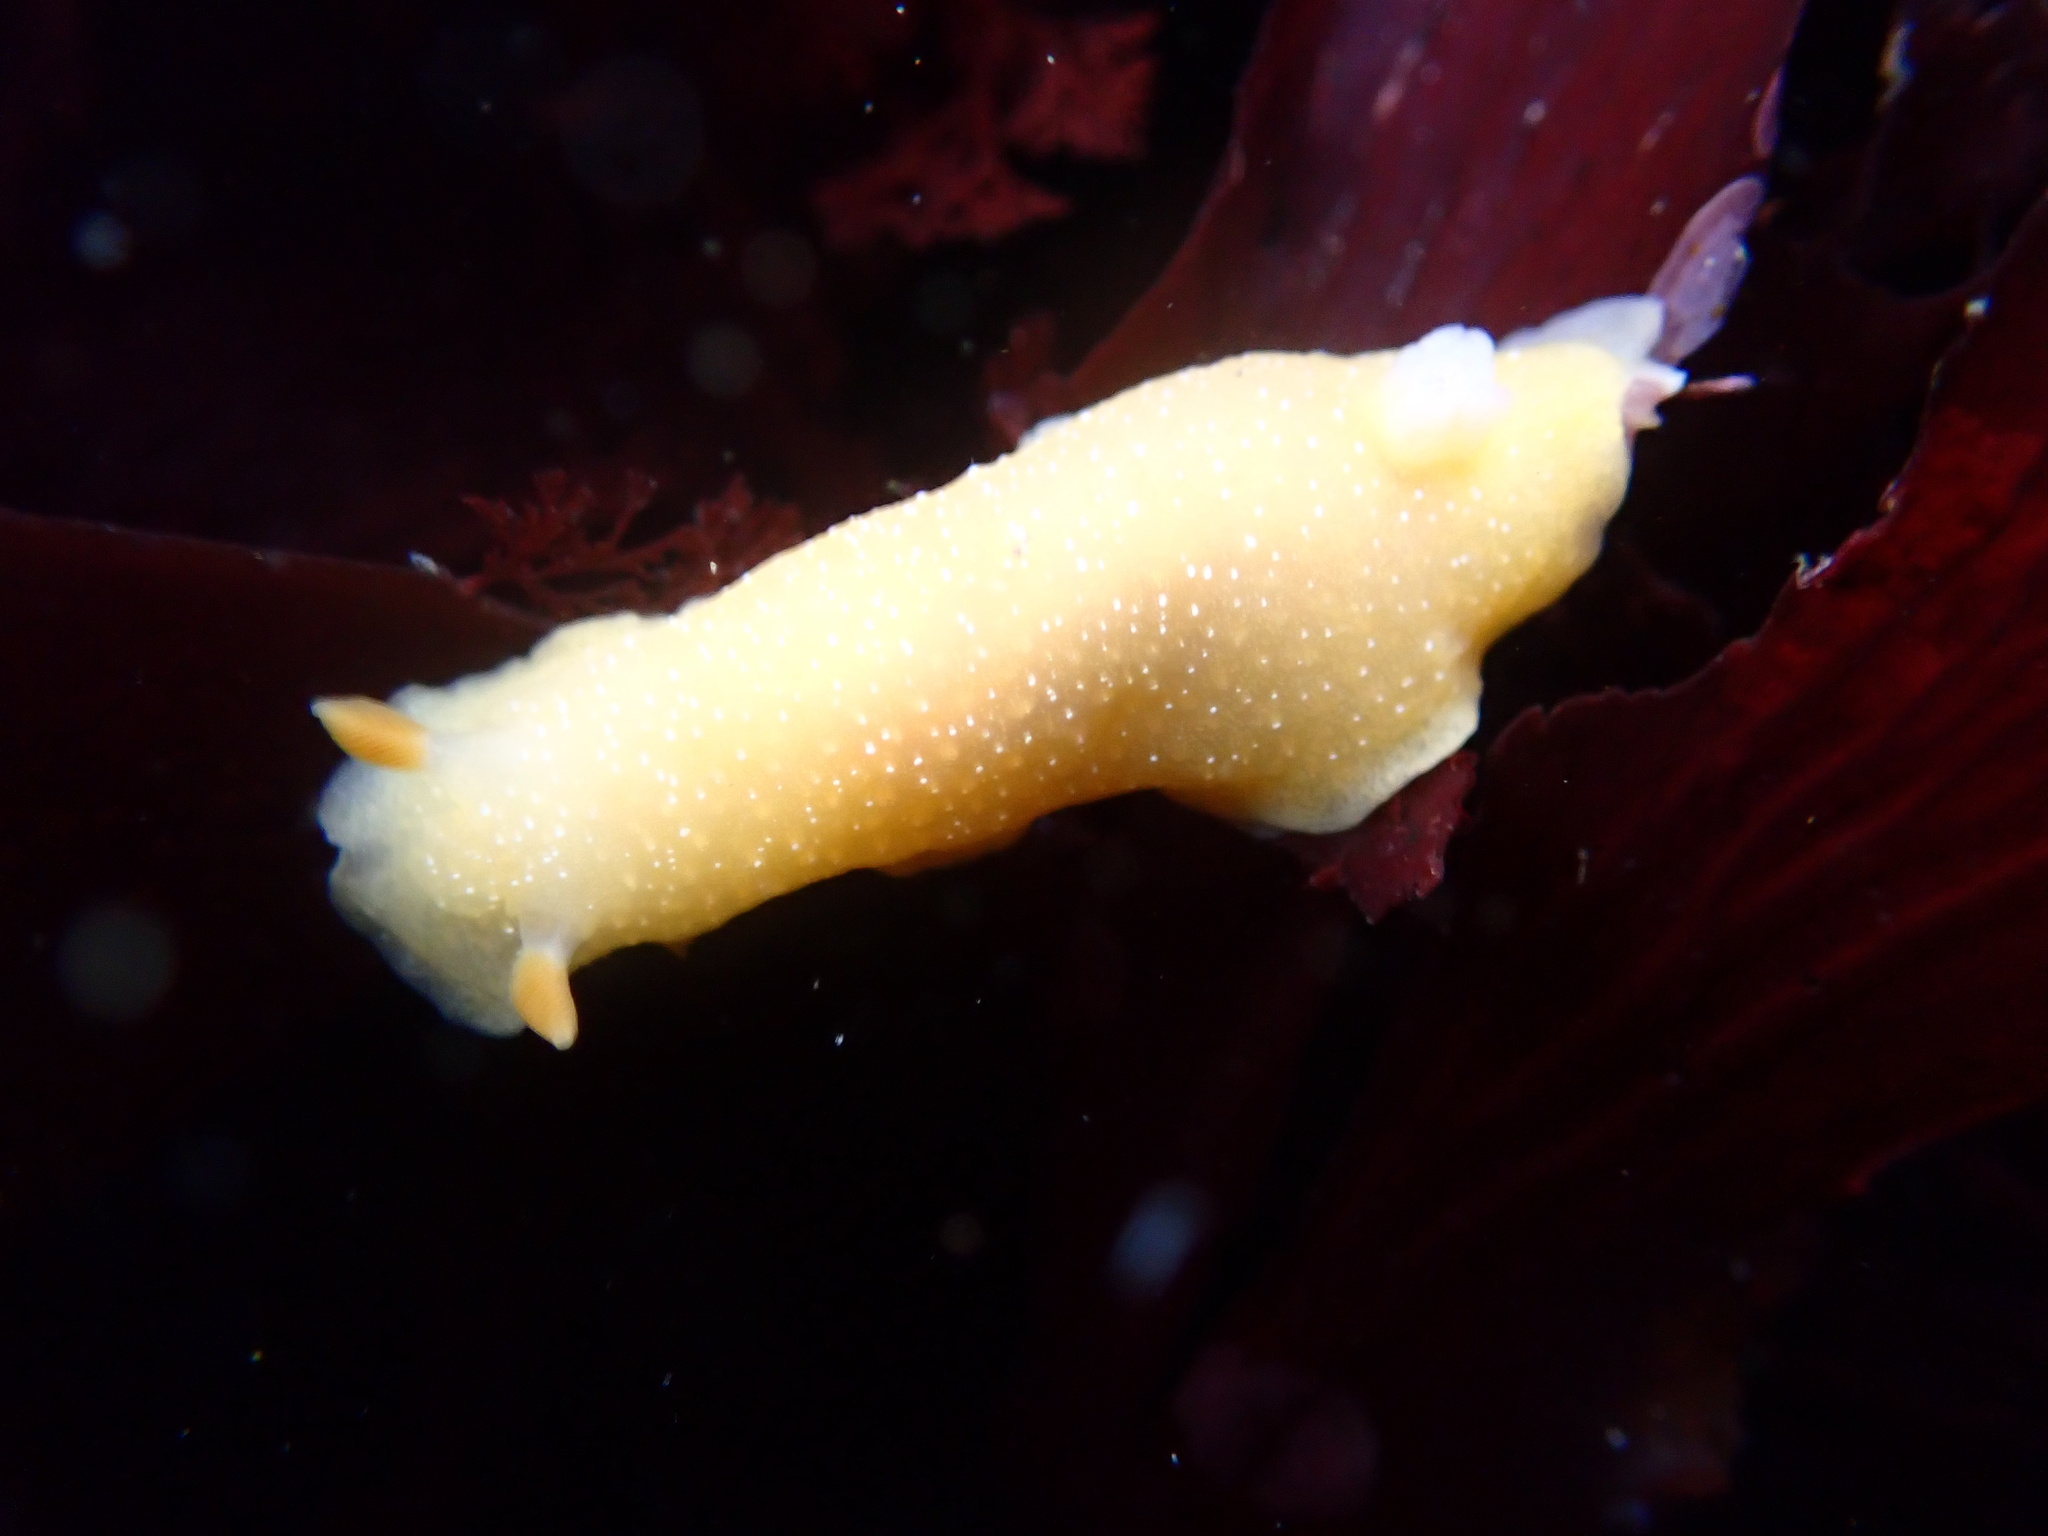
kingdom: Animalia
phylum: Mollusca
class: Gastropoda
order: Nudibranchia
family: Dendrodorididae
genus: Doriopsilla
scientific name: Doriopsilla fulva
